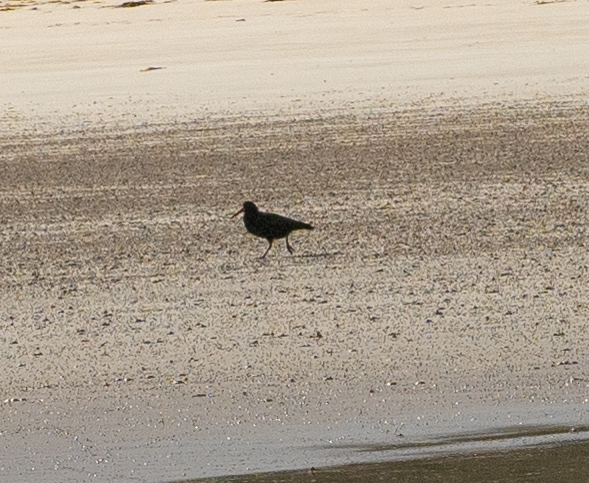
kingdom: Animalia
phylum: Chordata
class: Aves
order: Charadriiformes
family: Haematopodidae
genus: Haematopus
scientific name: Haematopus fuliginosus
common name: Sooty oystercatcher
